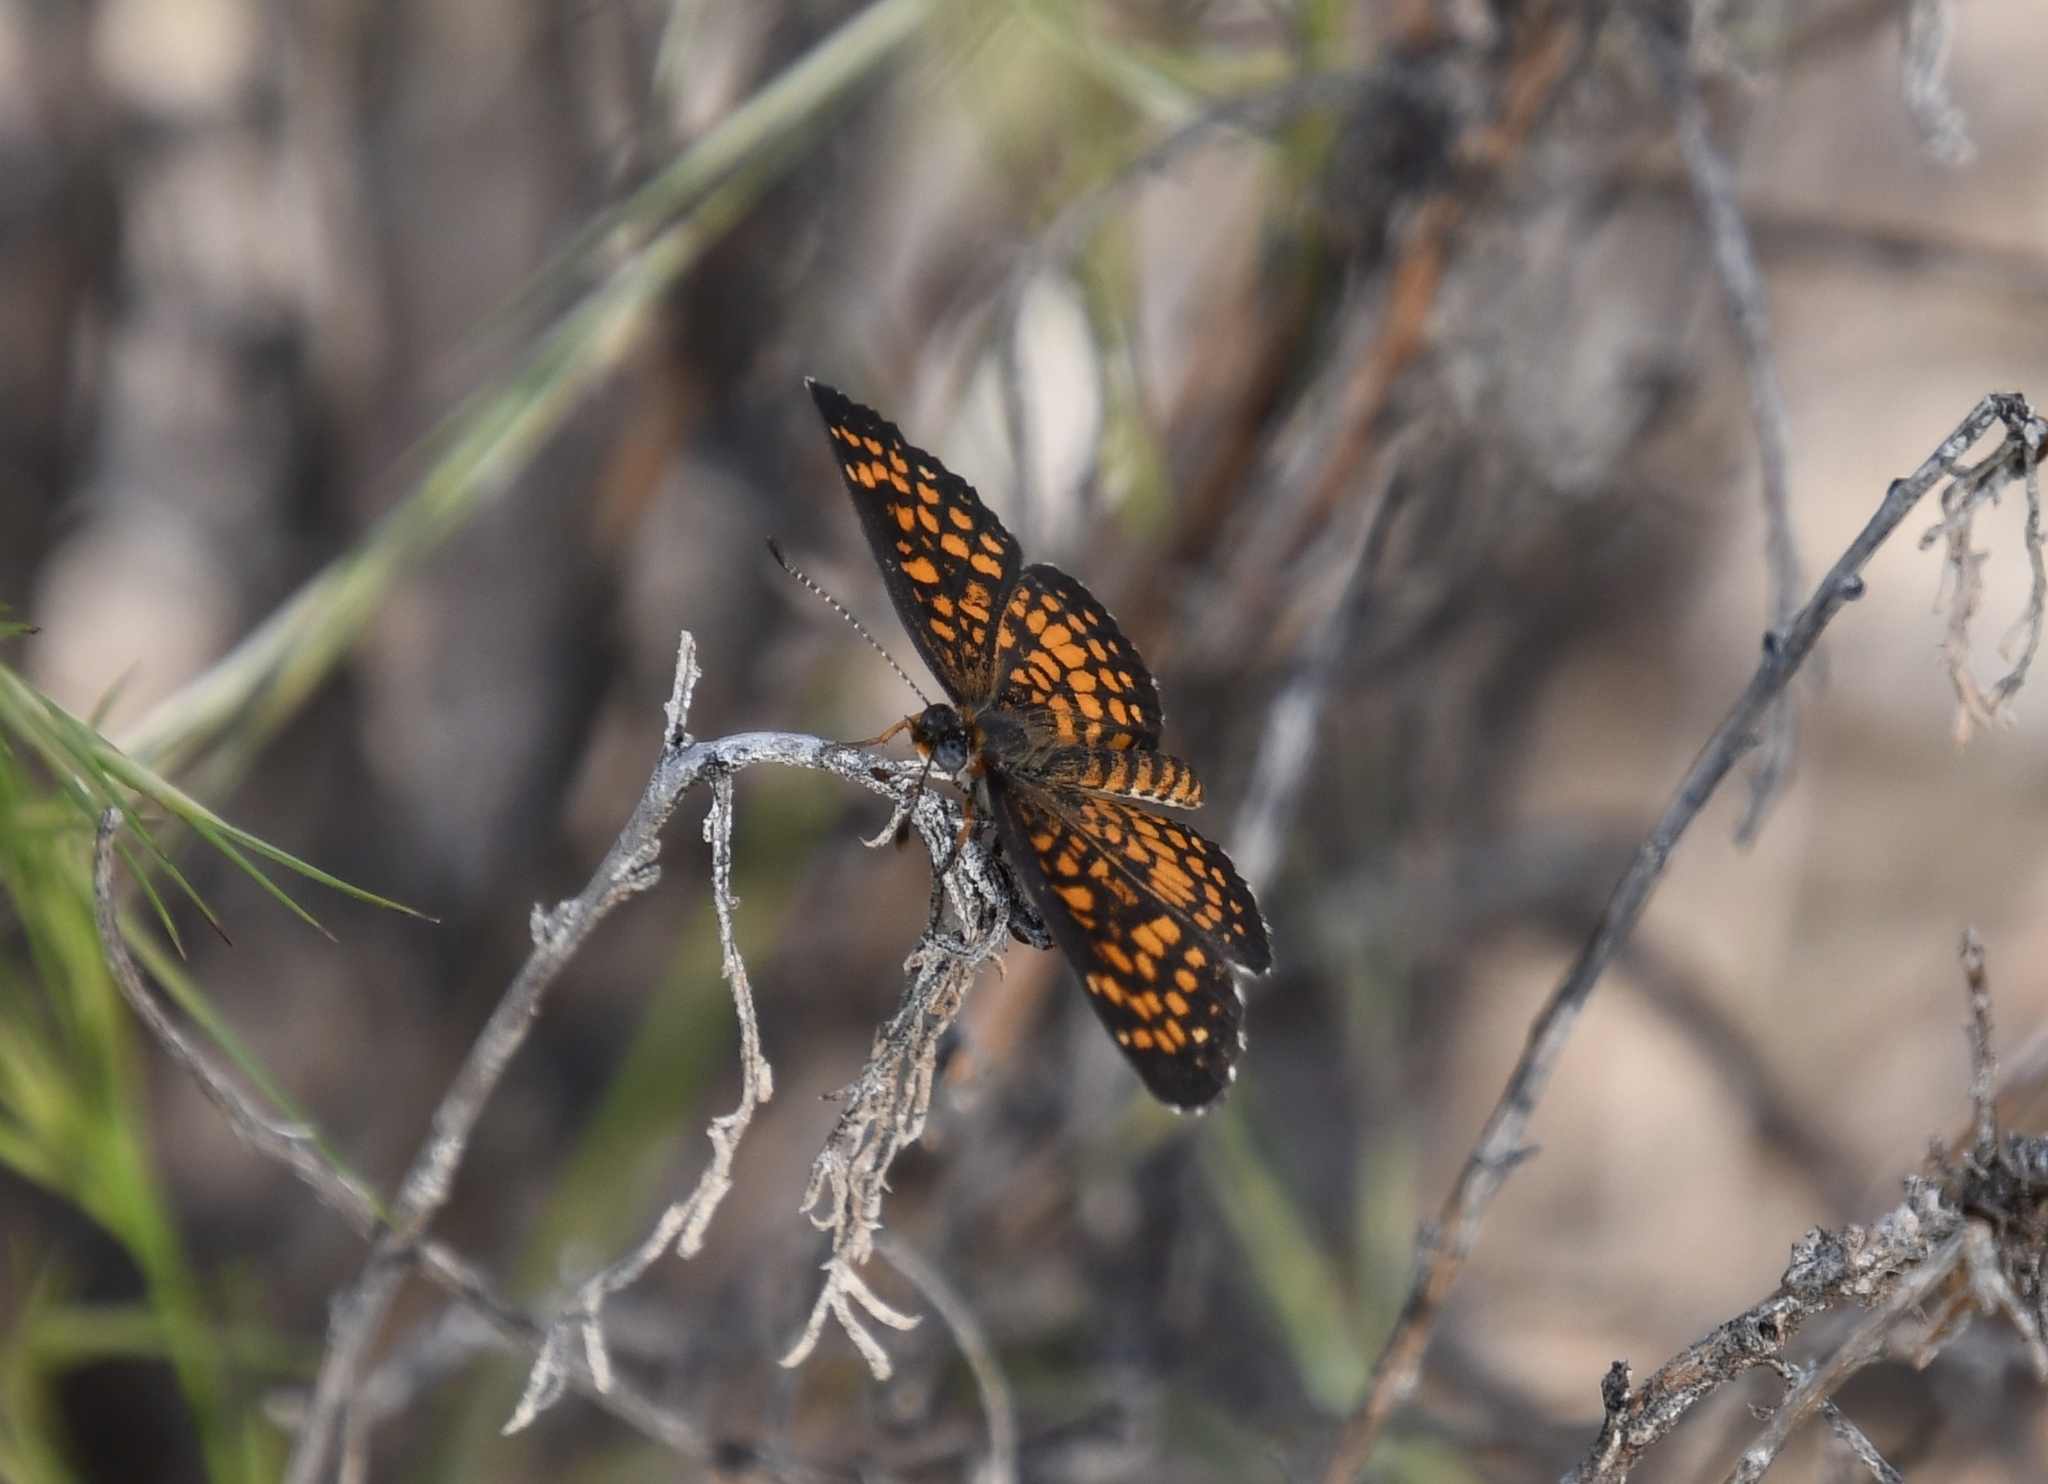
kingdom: Animalia
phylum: Arthropoda
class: Insecta
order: Lepidoptera
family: Nymphalidae
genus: Texola
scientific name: Texola
